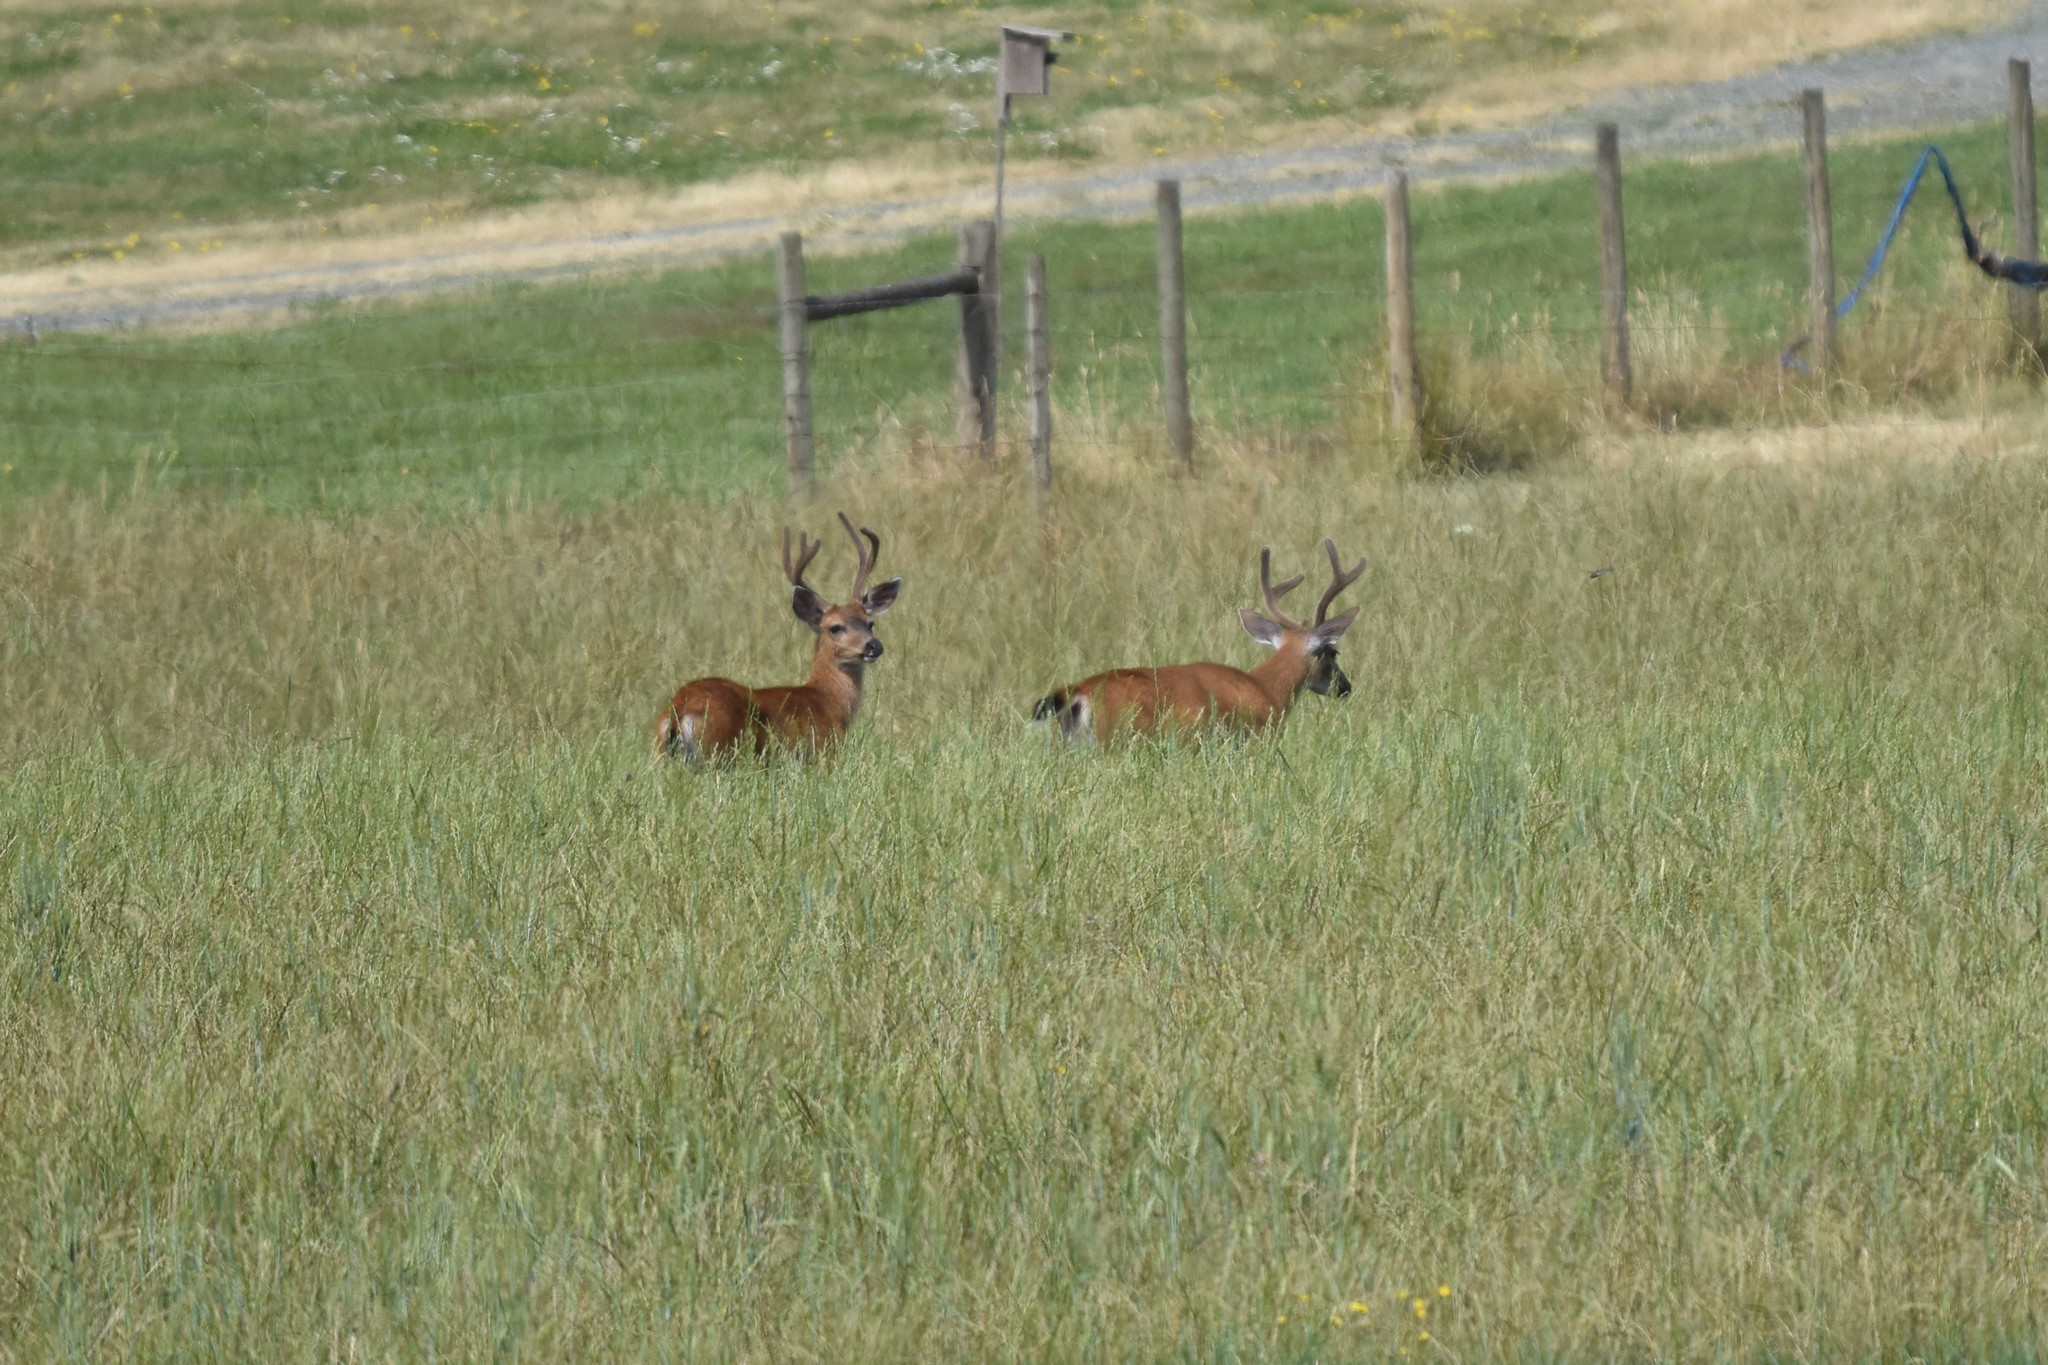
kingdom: Animalia
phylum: Chordata
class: Mammalia
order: Artiodactyla
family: Cervidae
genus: Odocoileus
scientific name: Odocoileus hemionus
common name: Mule deer
